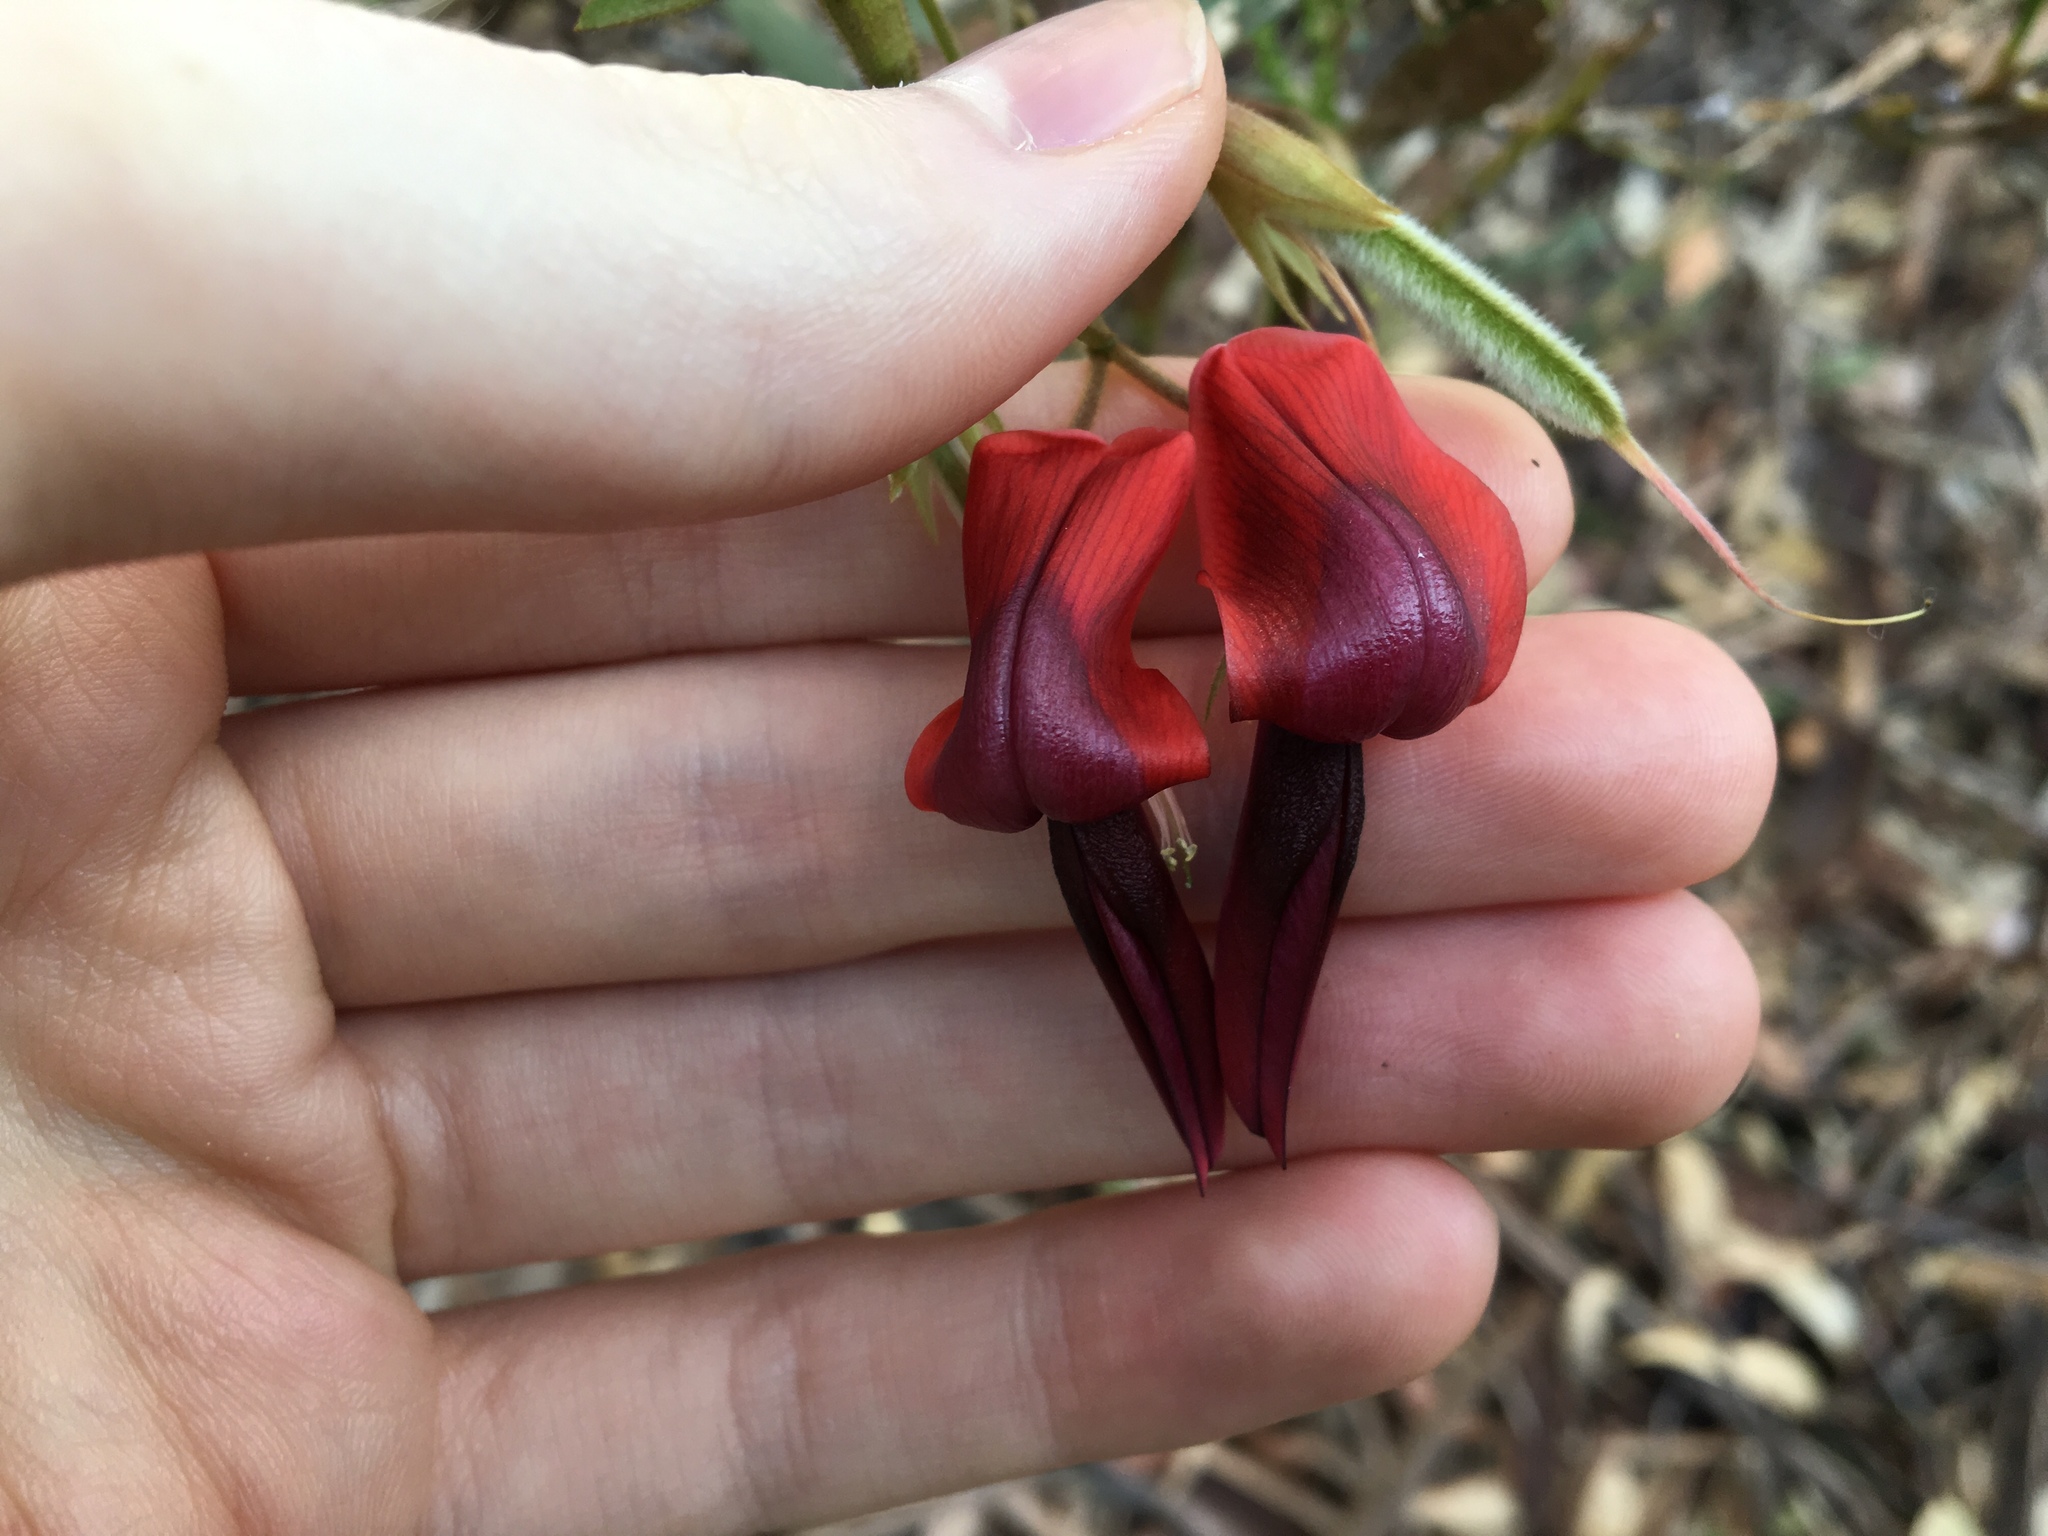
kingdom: Plantae
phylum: Tracheophyta
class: Magnoliopsida
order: Fabales
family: Fabaceae
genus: Kennedia
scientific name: Kennedia rubicunda
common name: Red kennedy-pea
